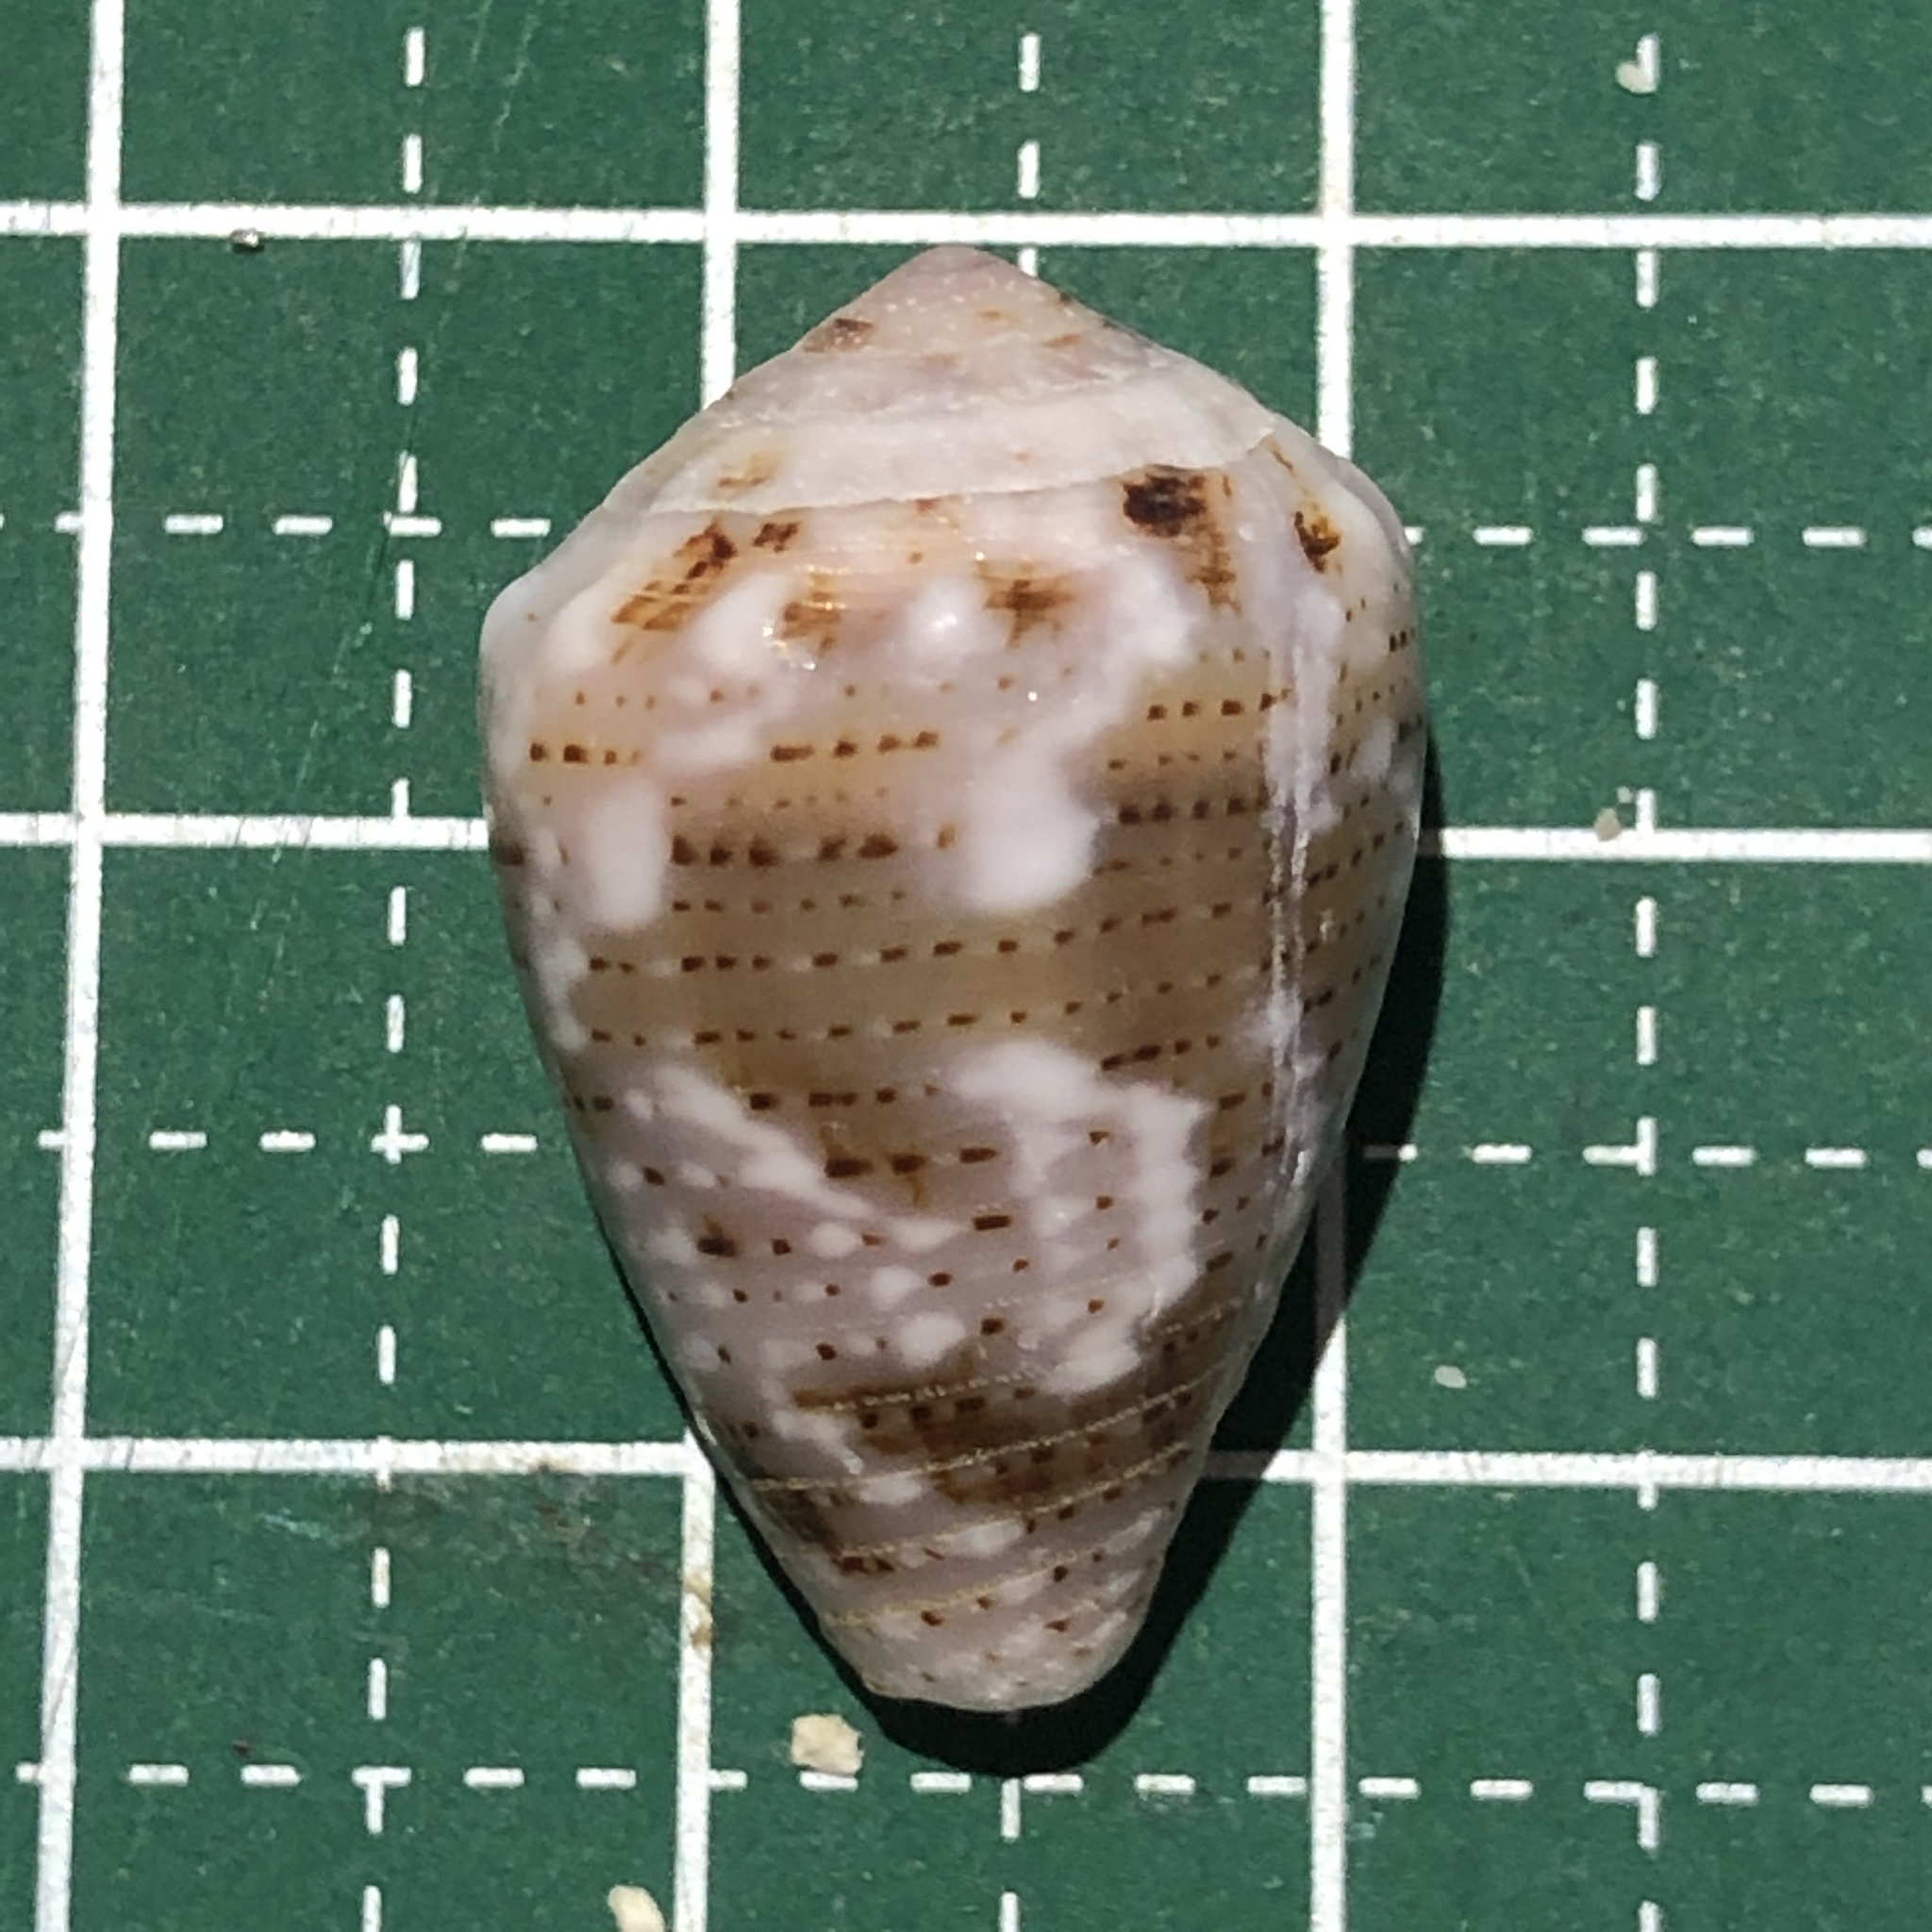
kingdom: Animalia
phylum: Mollusca
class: Gastropoda
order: Neogastropoda
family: Conidae
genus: Conus
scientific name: Conus coronatus
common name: Coronated cone
